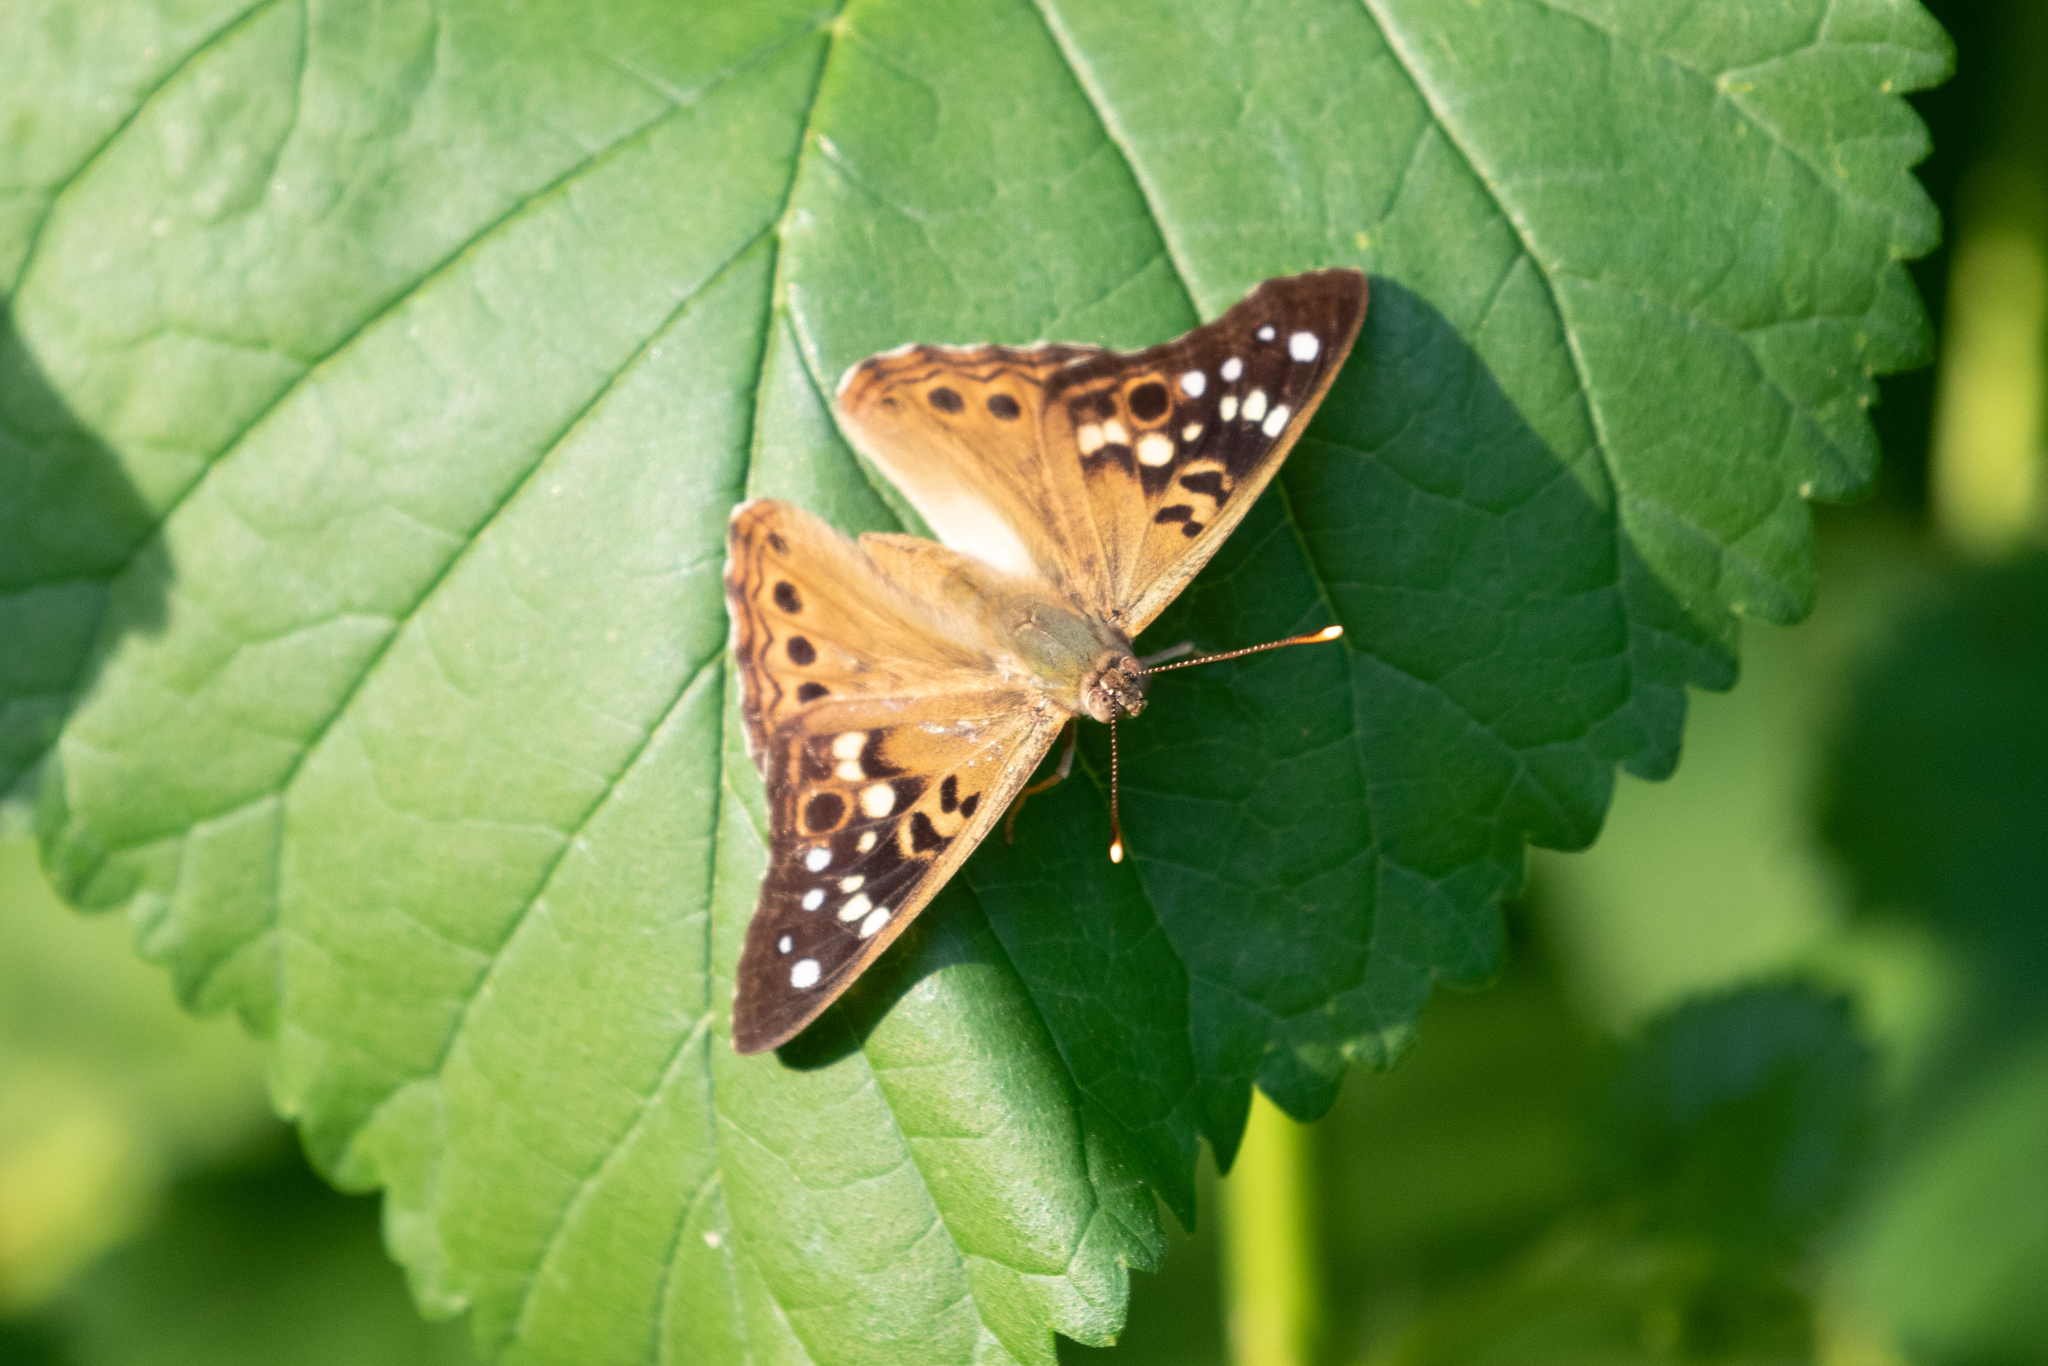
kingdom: Animalia
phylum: Arthropoda
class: Insecta
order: Lepidoptera
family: Nymphalidae
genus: Asterocampa
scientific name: Asterocampa celtis
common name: Hackberry emperor
